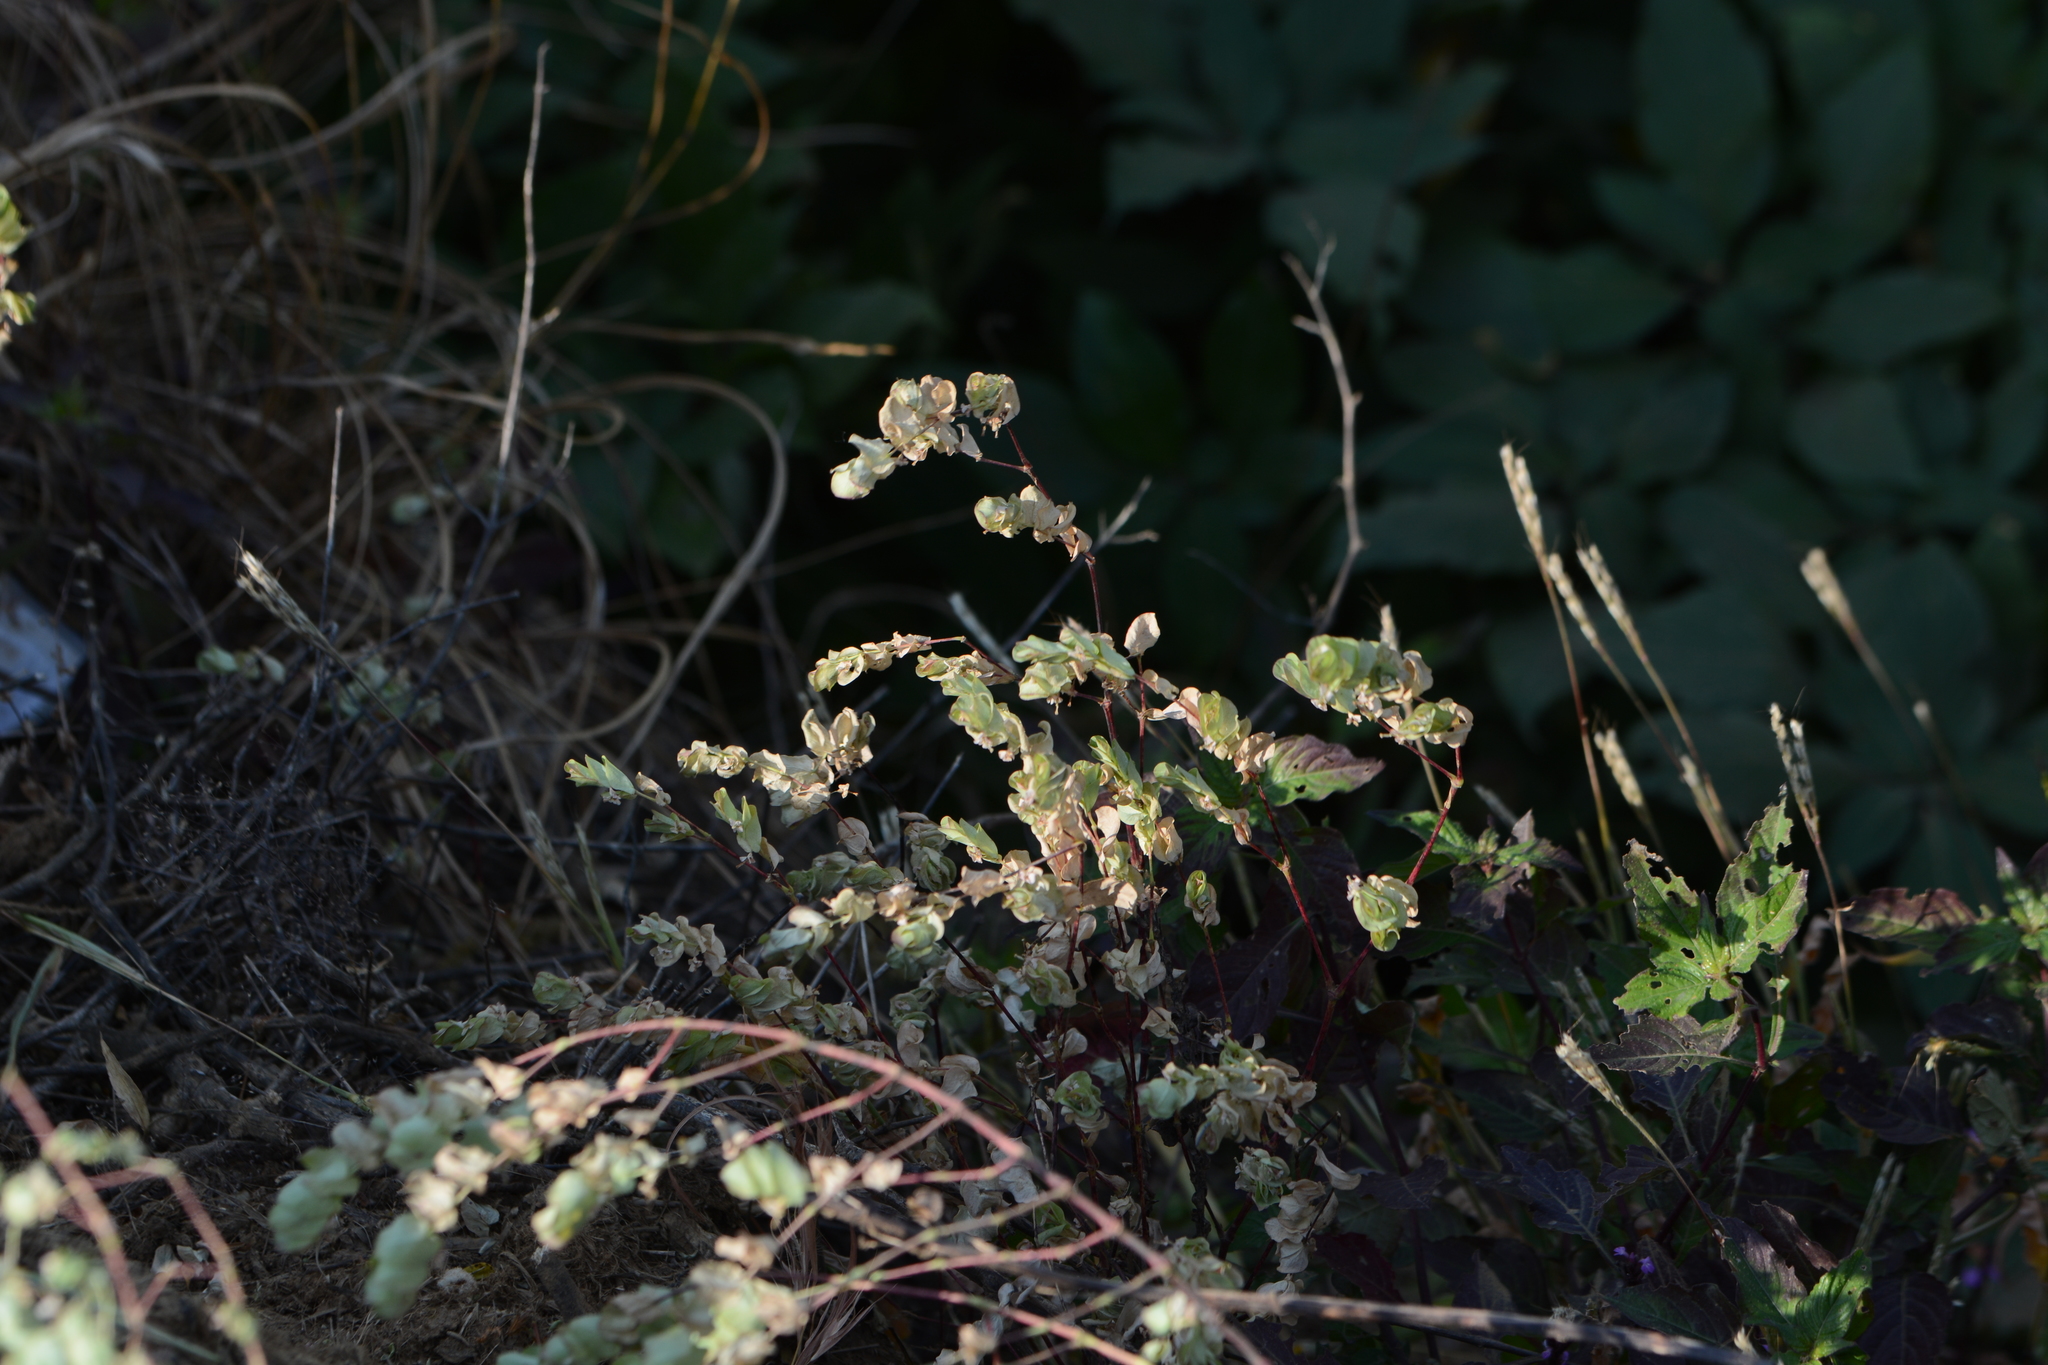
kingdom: Plantae
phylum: Tracheophyta
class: Magnoliopsida
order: Malpighiales
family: Euphorbiaceae
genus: Euphorbia
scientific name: Euphorbia pycnostegia
